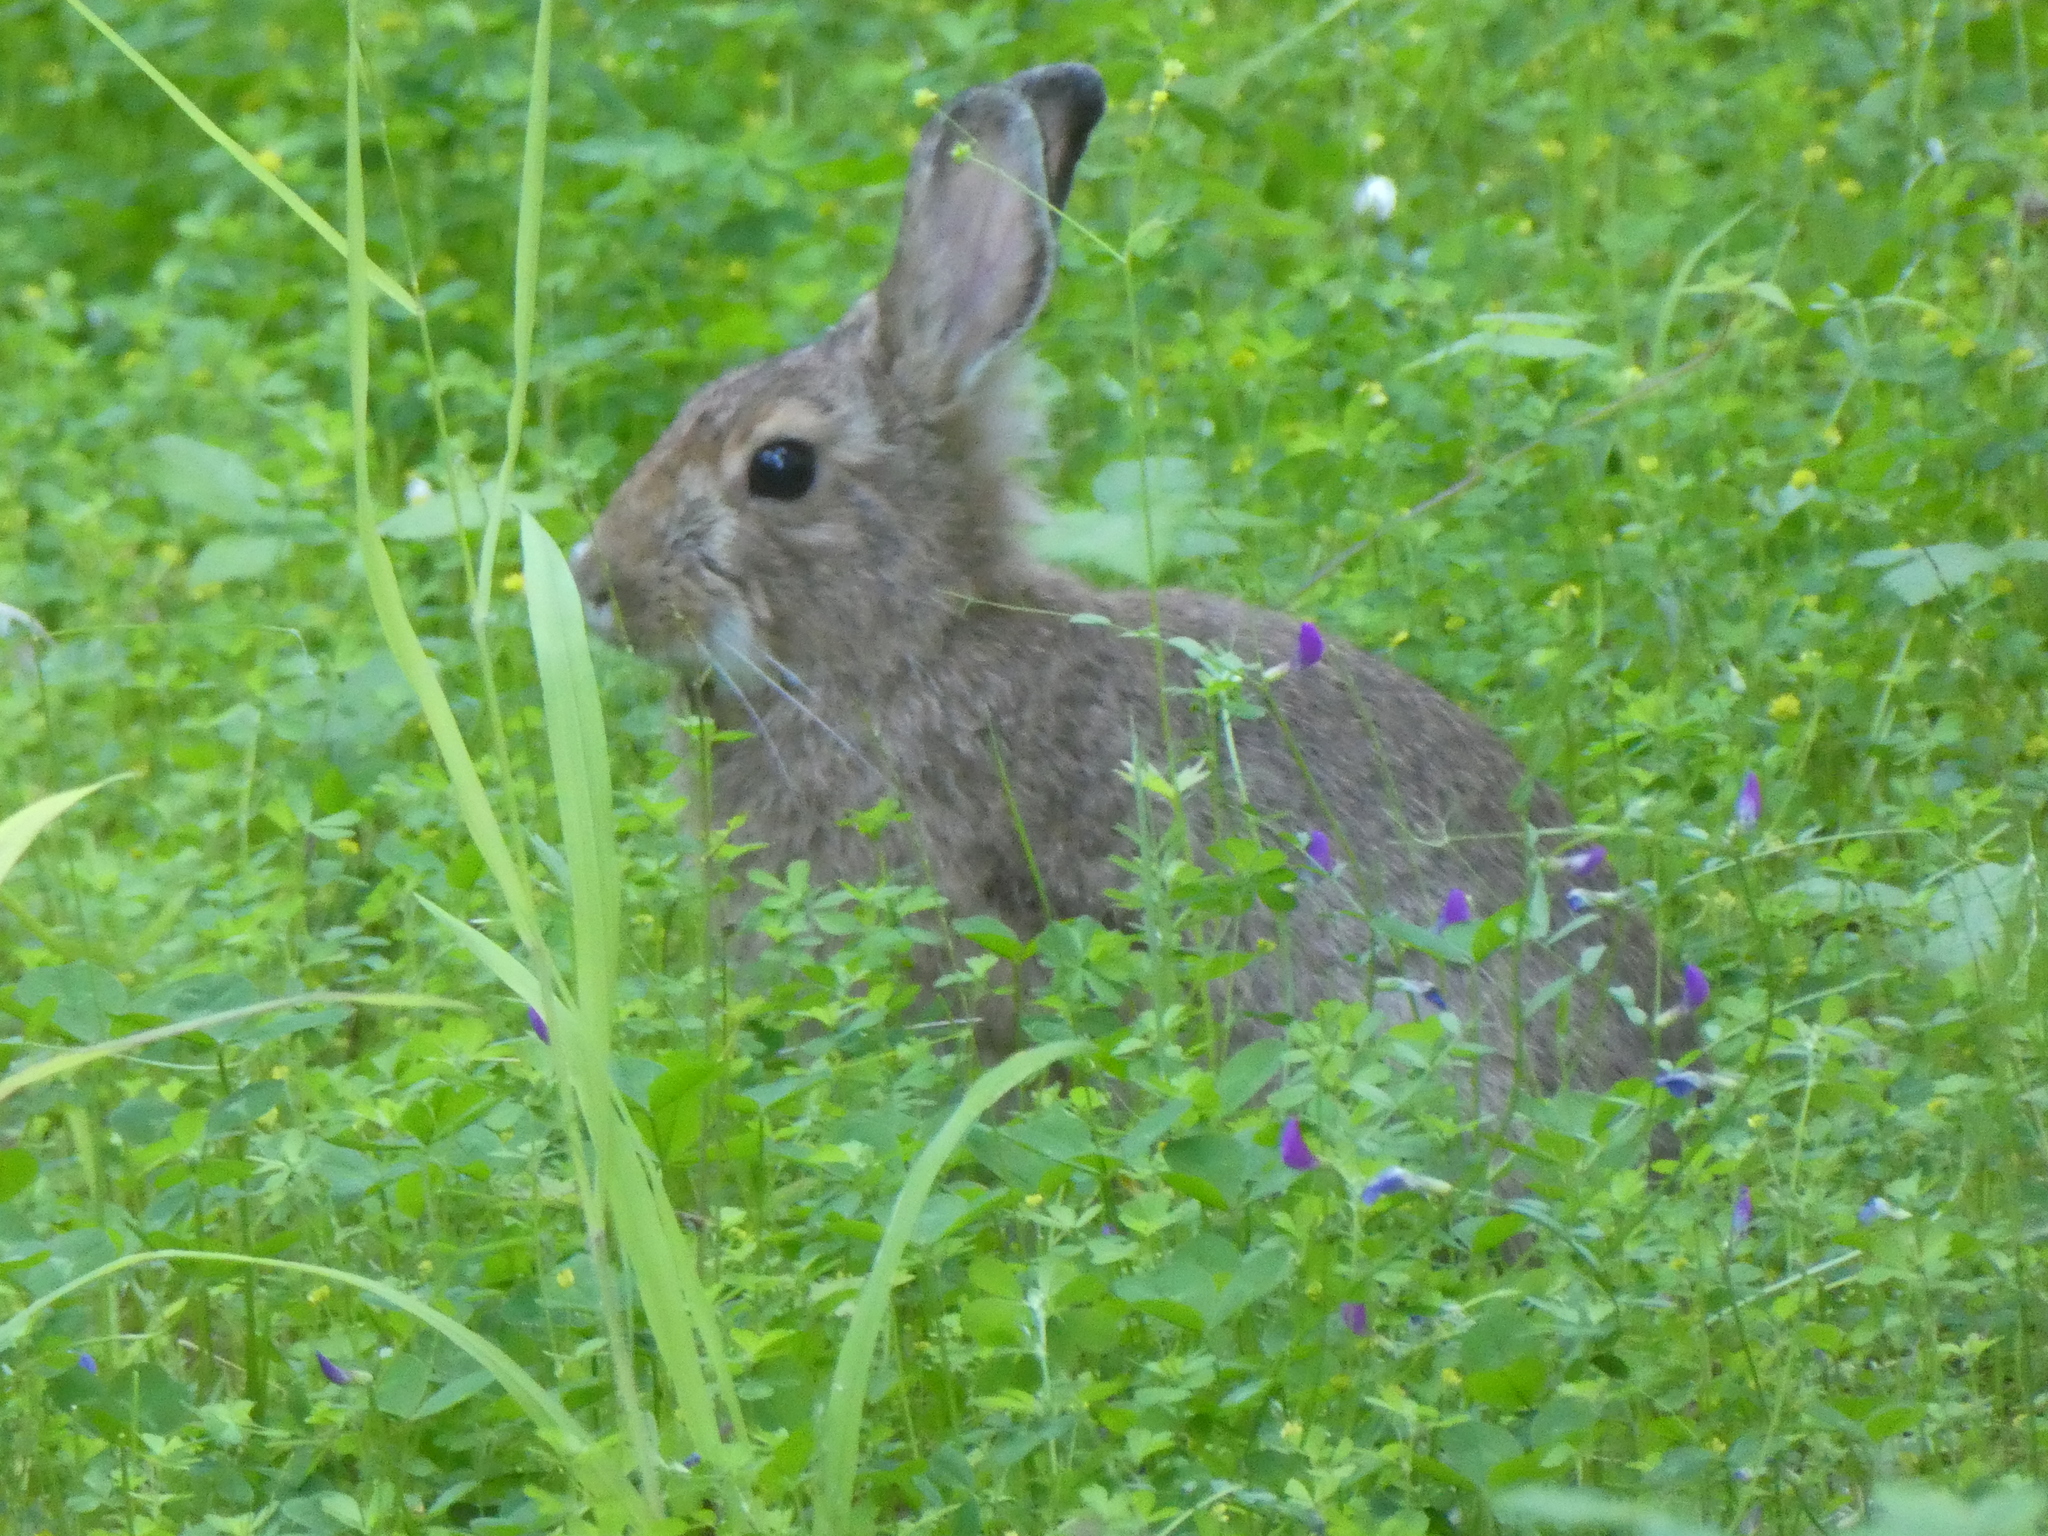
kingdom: Animalia
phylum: Chordata
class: Mammalia
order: Lagomorpha
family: Leporidae
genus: Lepus
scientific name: Lepus americanus
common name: Snowshoe hare
